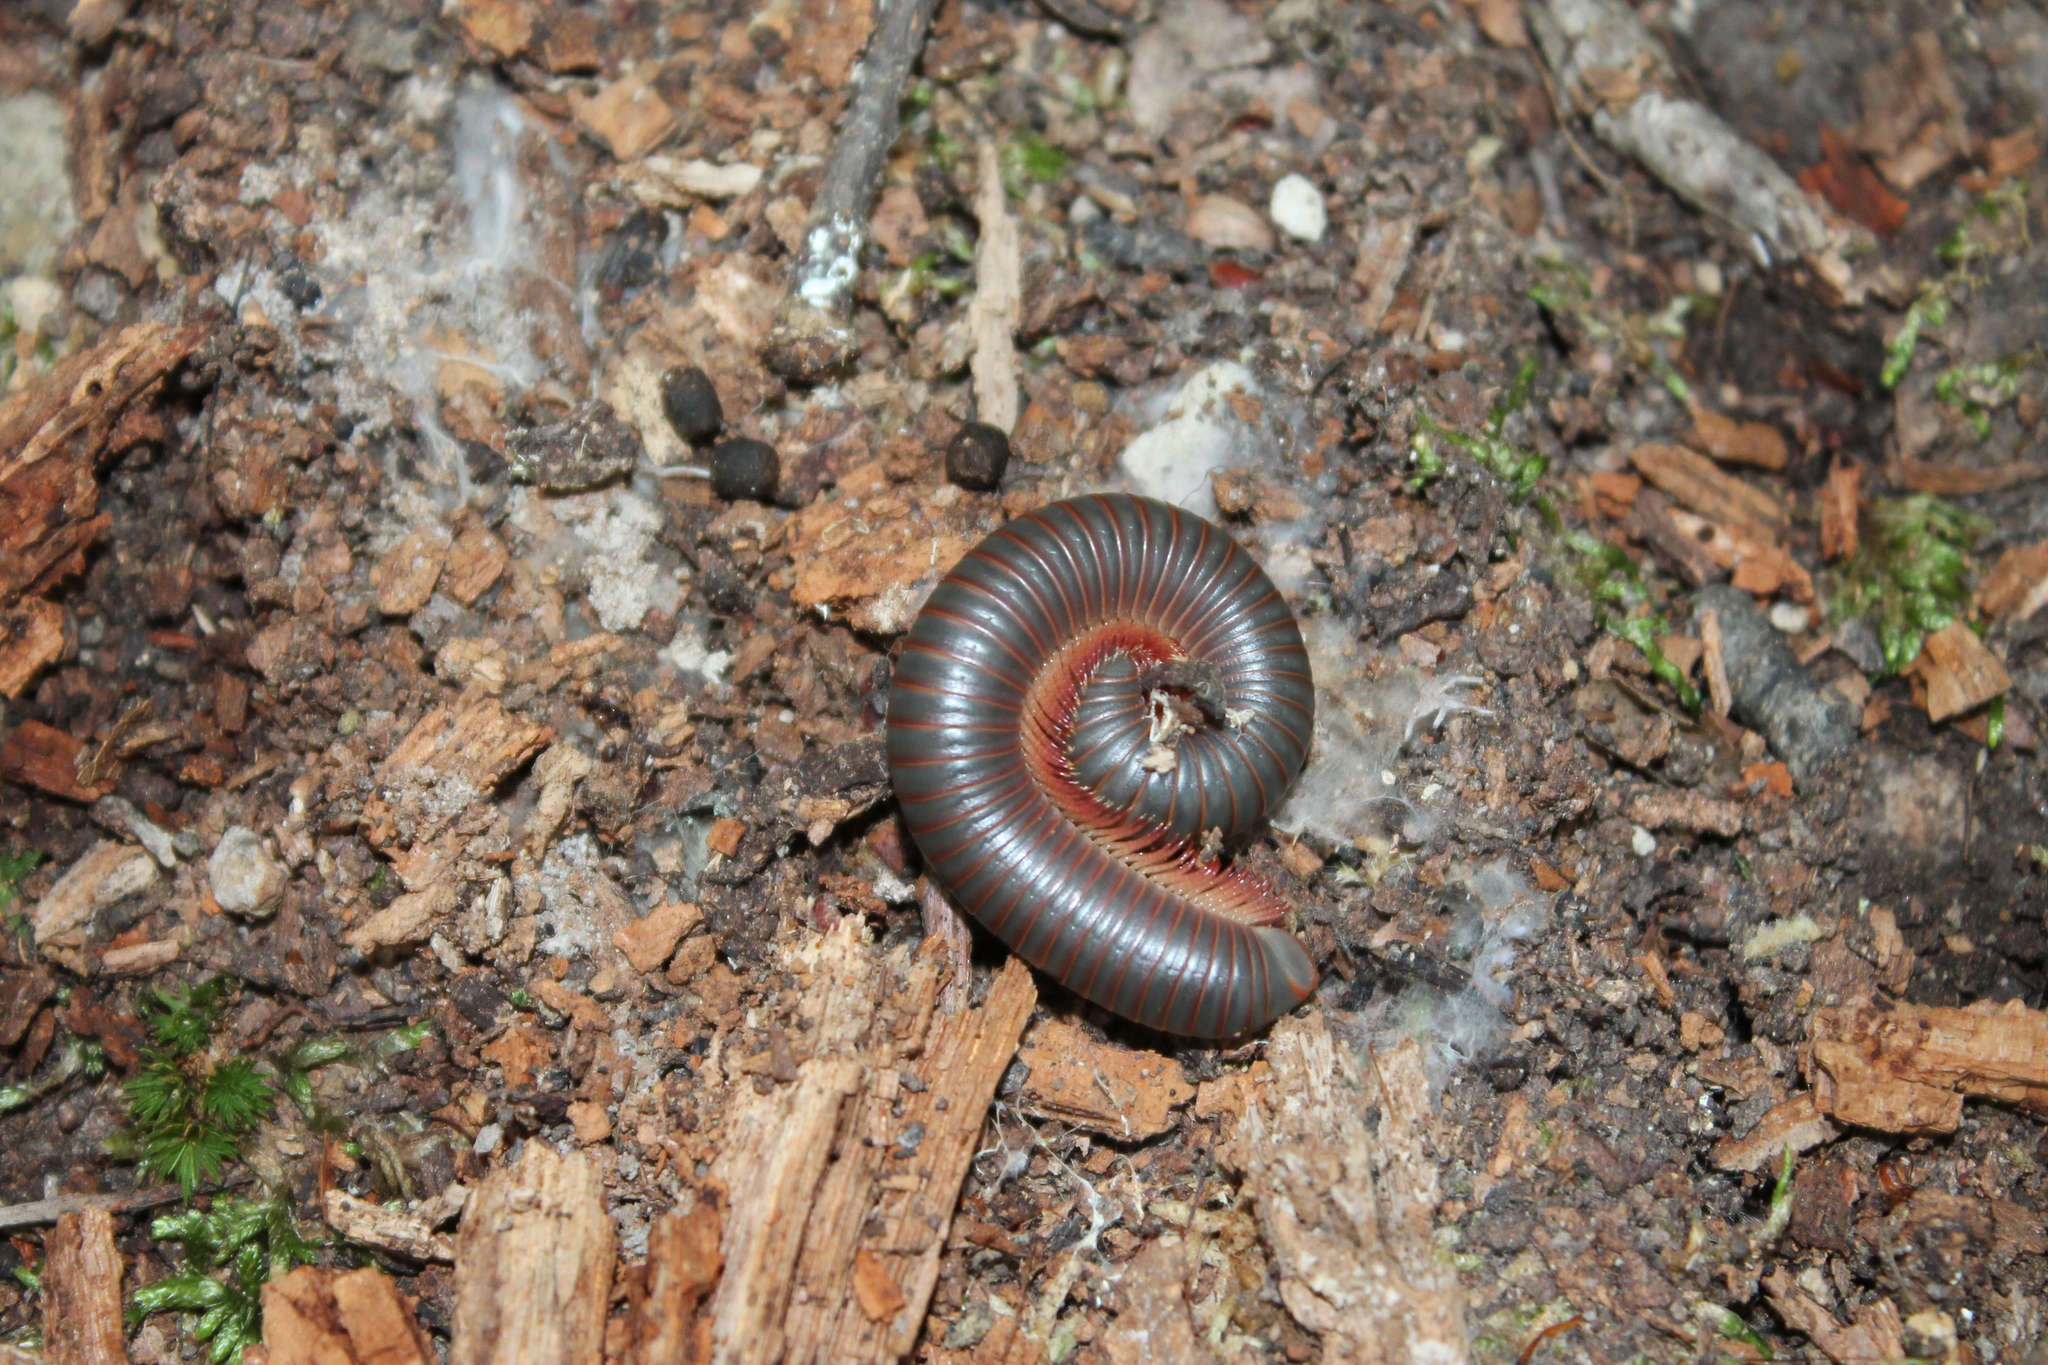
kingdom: Animalia
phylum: Arthropoda
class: Diplopoda
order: Spirobolida
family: Spirobolidae
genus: Narceus
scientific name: Narceus
